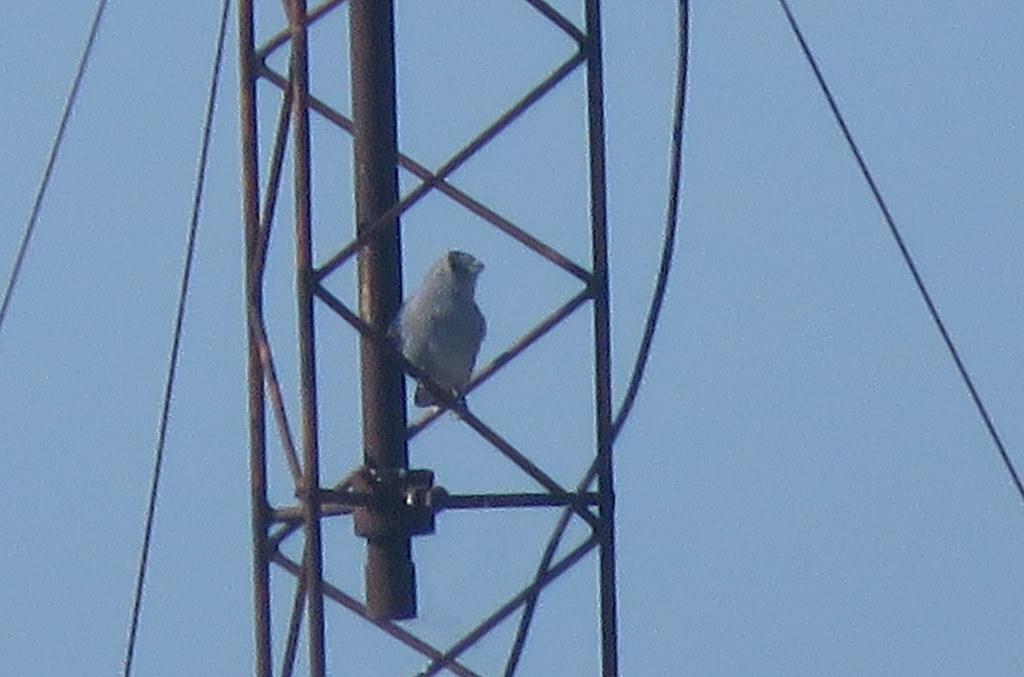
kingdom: Animalia
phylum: Chordata
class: Aves
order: Passeriformes
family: Thraupidae
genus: Thraupis
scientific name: Thraupis sayaca
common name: Sayaca tanager
